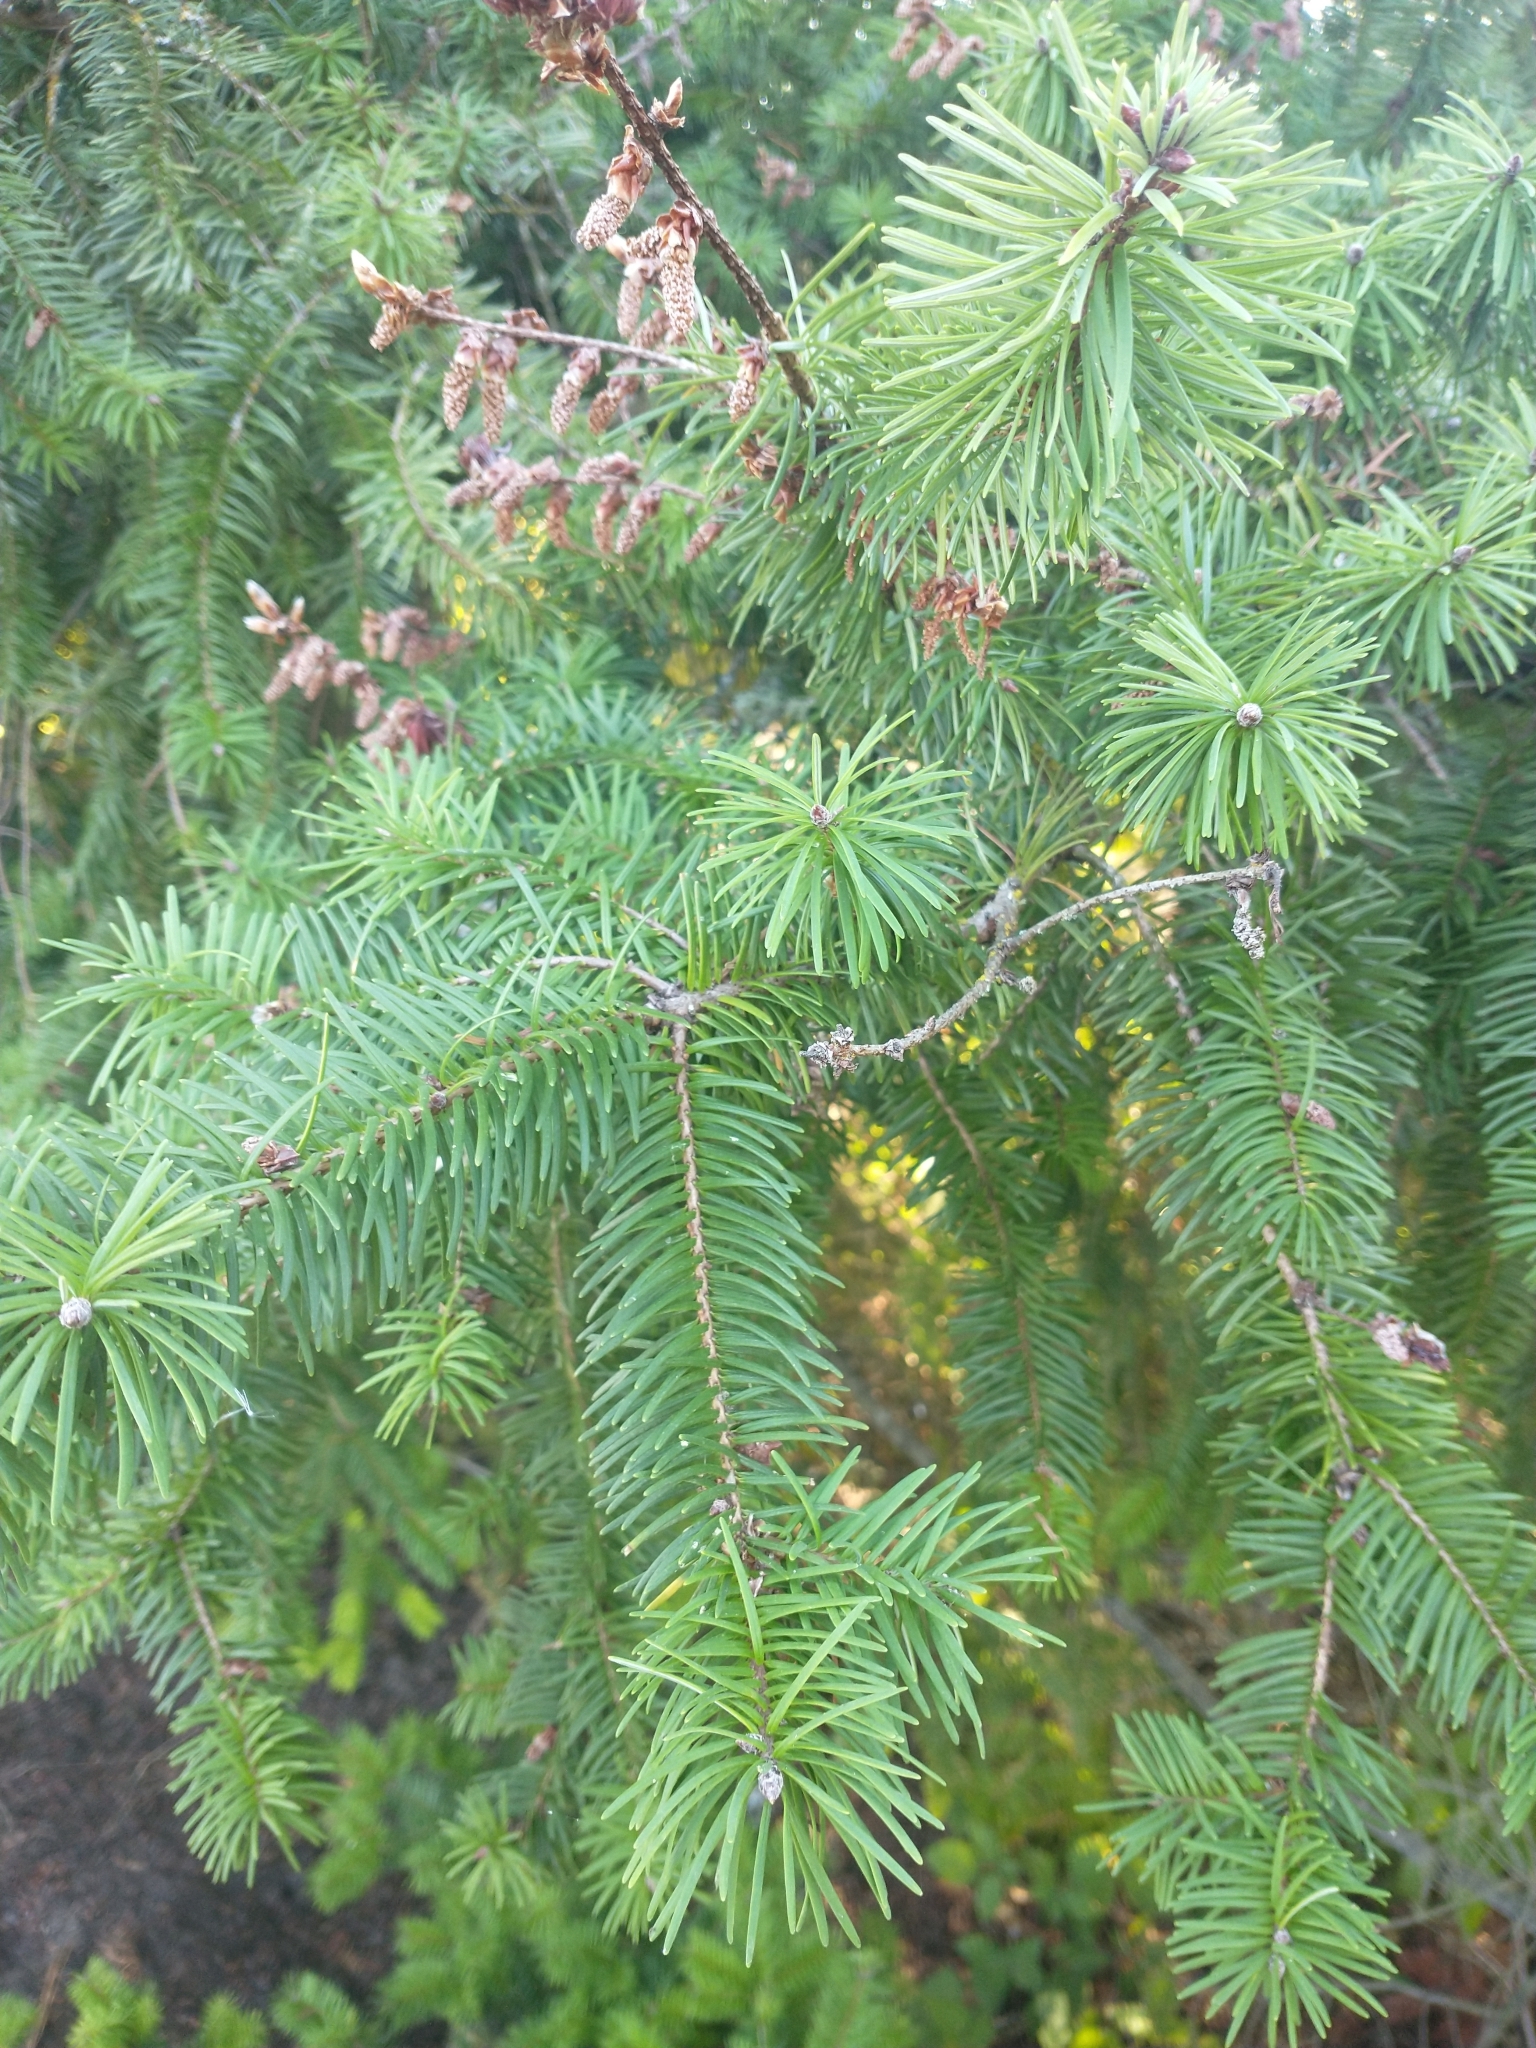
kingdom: Plantae
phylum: Tracheophyta
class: Pinopsida
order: Pinales
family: Pinaceae
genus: Pseudotsuga
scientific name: Pseudotsuga menziesii
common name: Douglas fir
